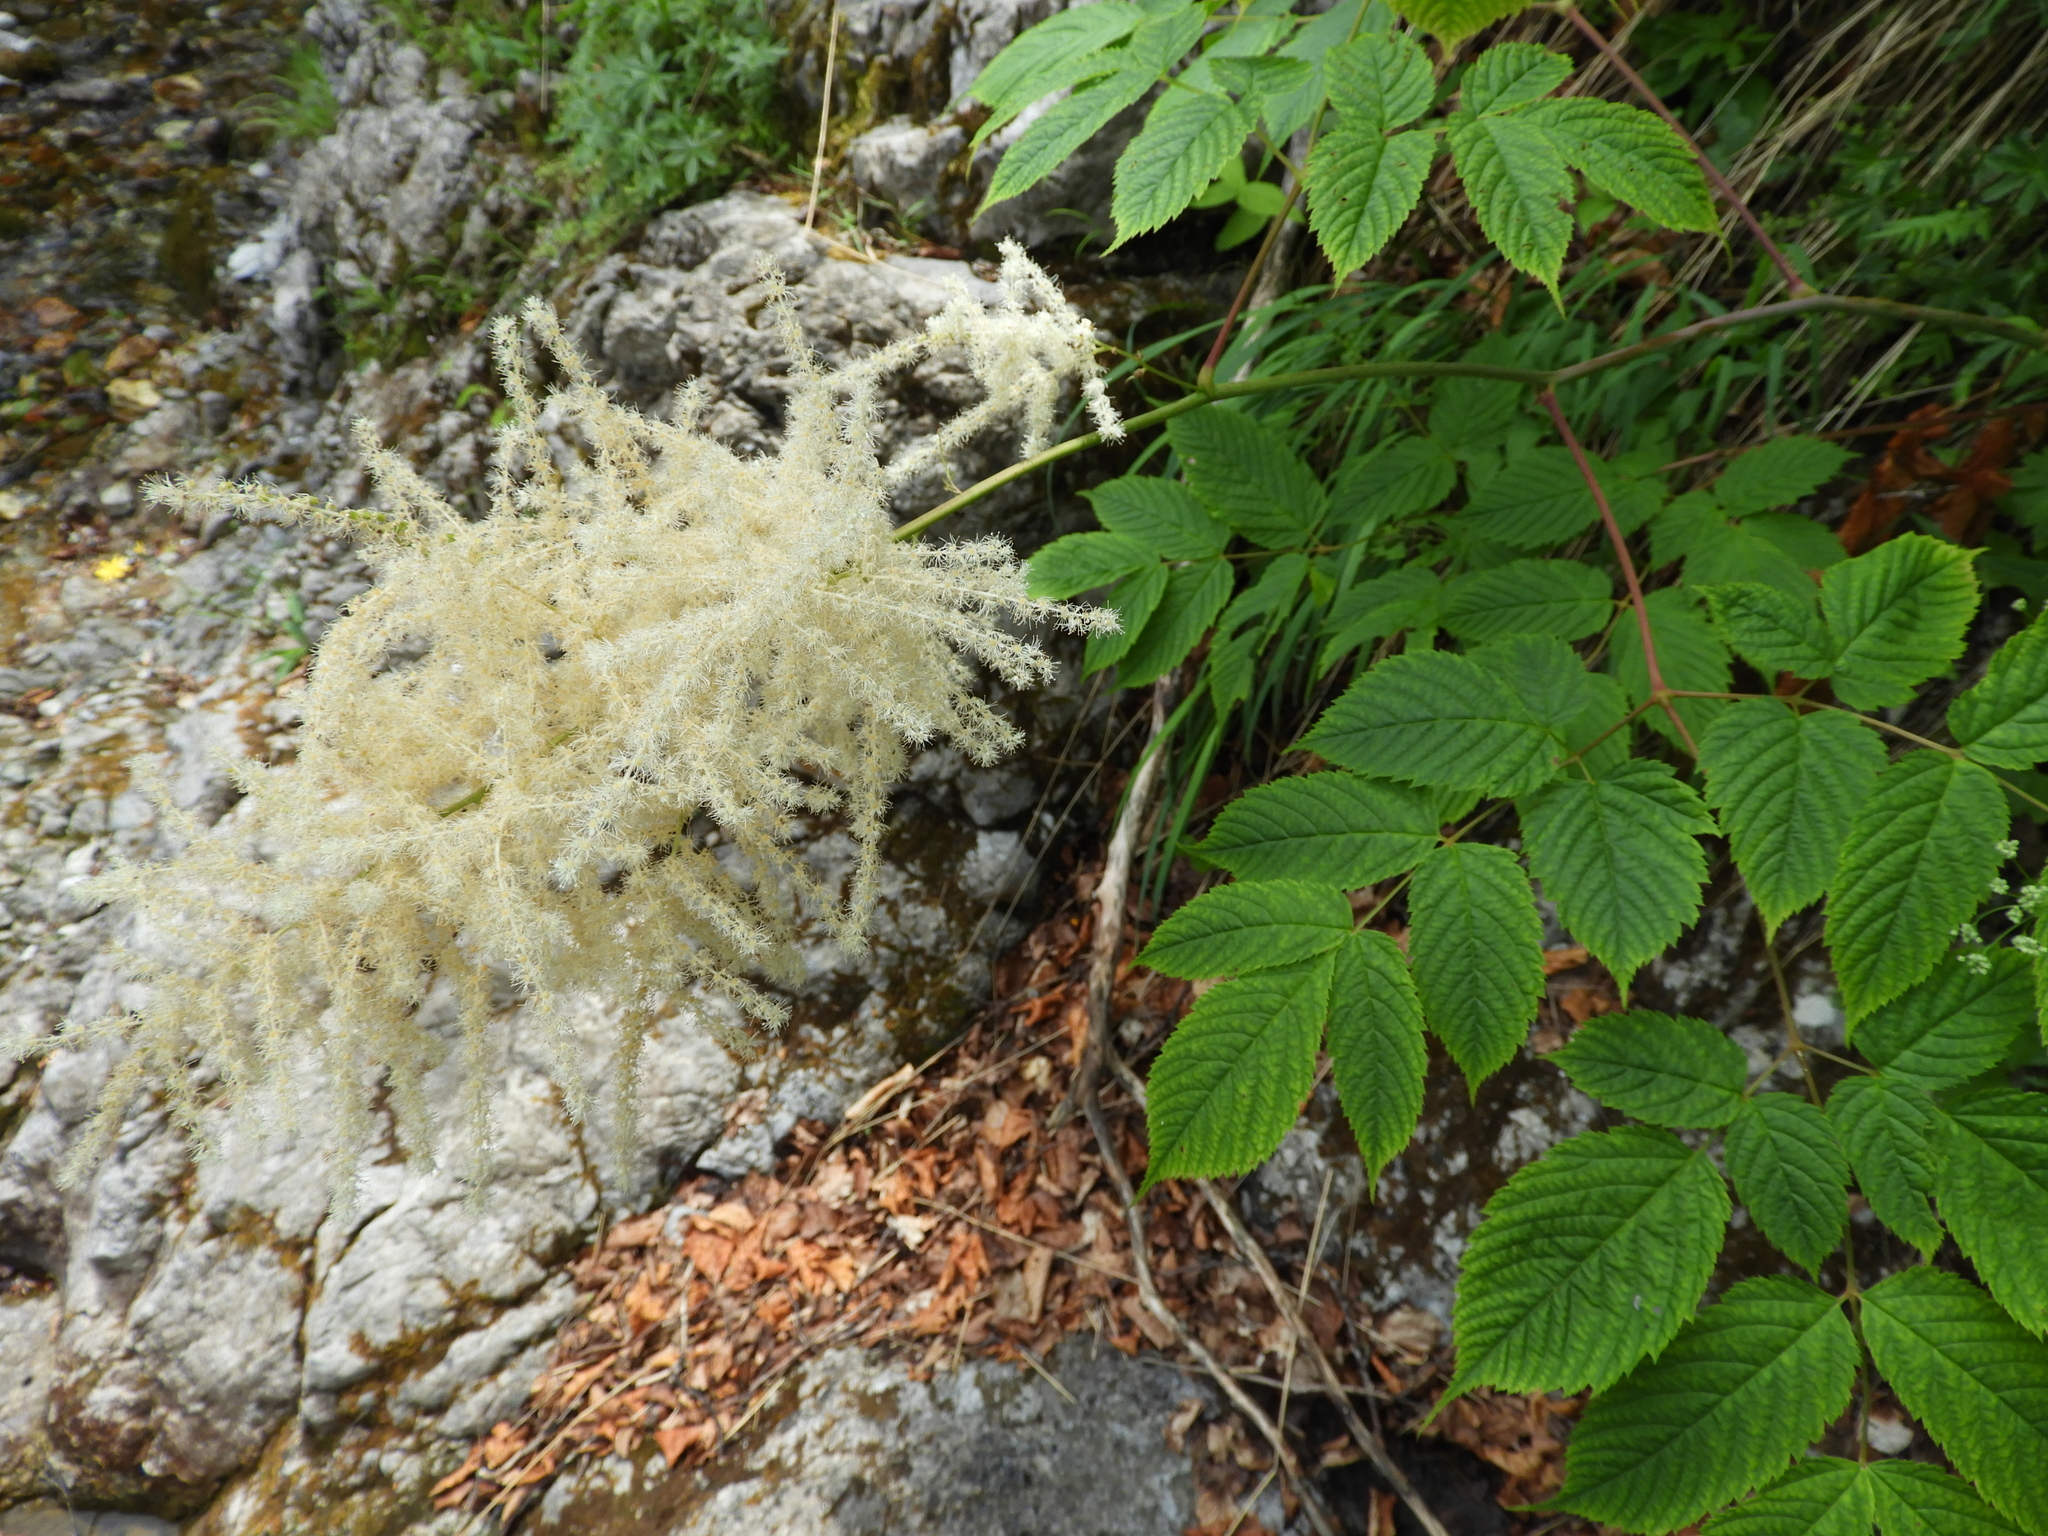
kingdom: Plantae
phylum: Tracheophyta
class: Magnoliopsida
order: Rosales
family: Rosaceae
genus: Aruncus
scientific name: Aruncus dioicus
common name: Buck's-beard
